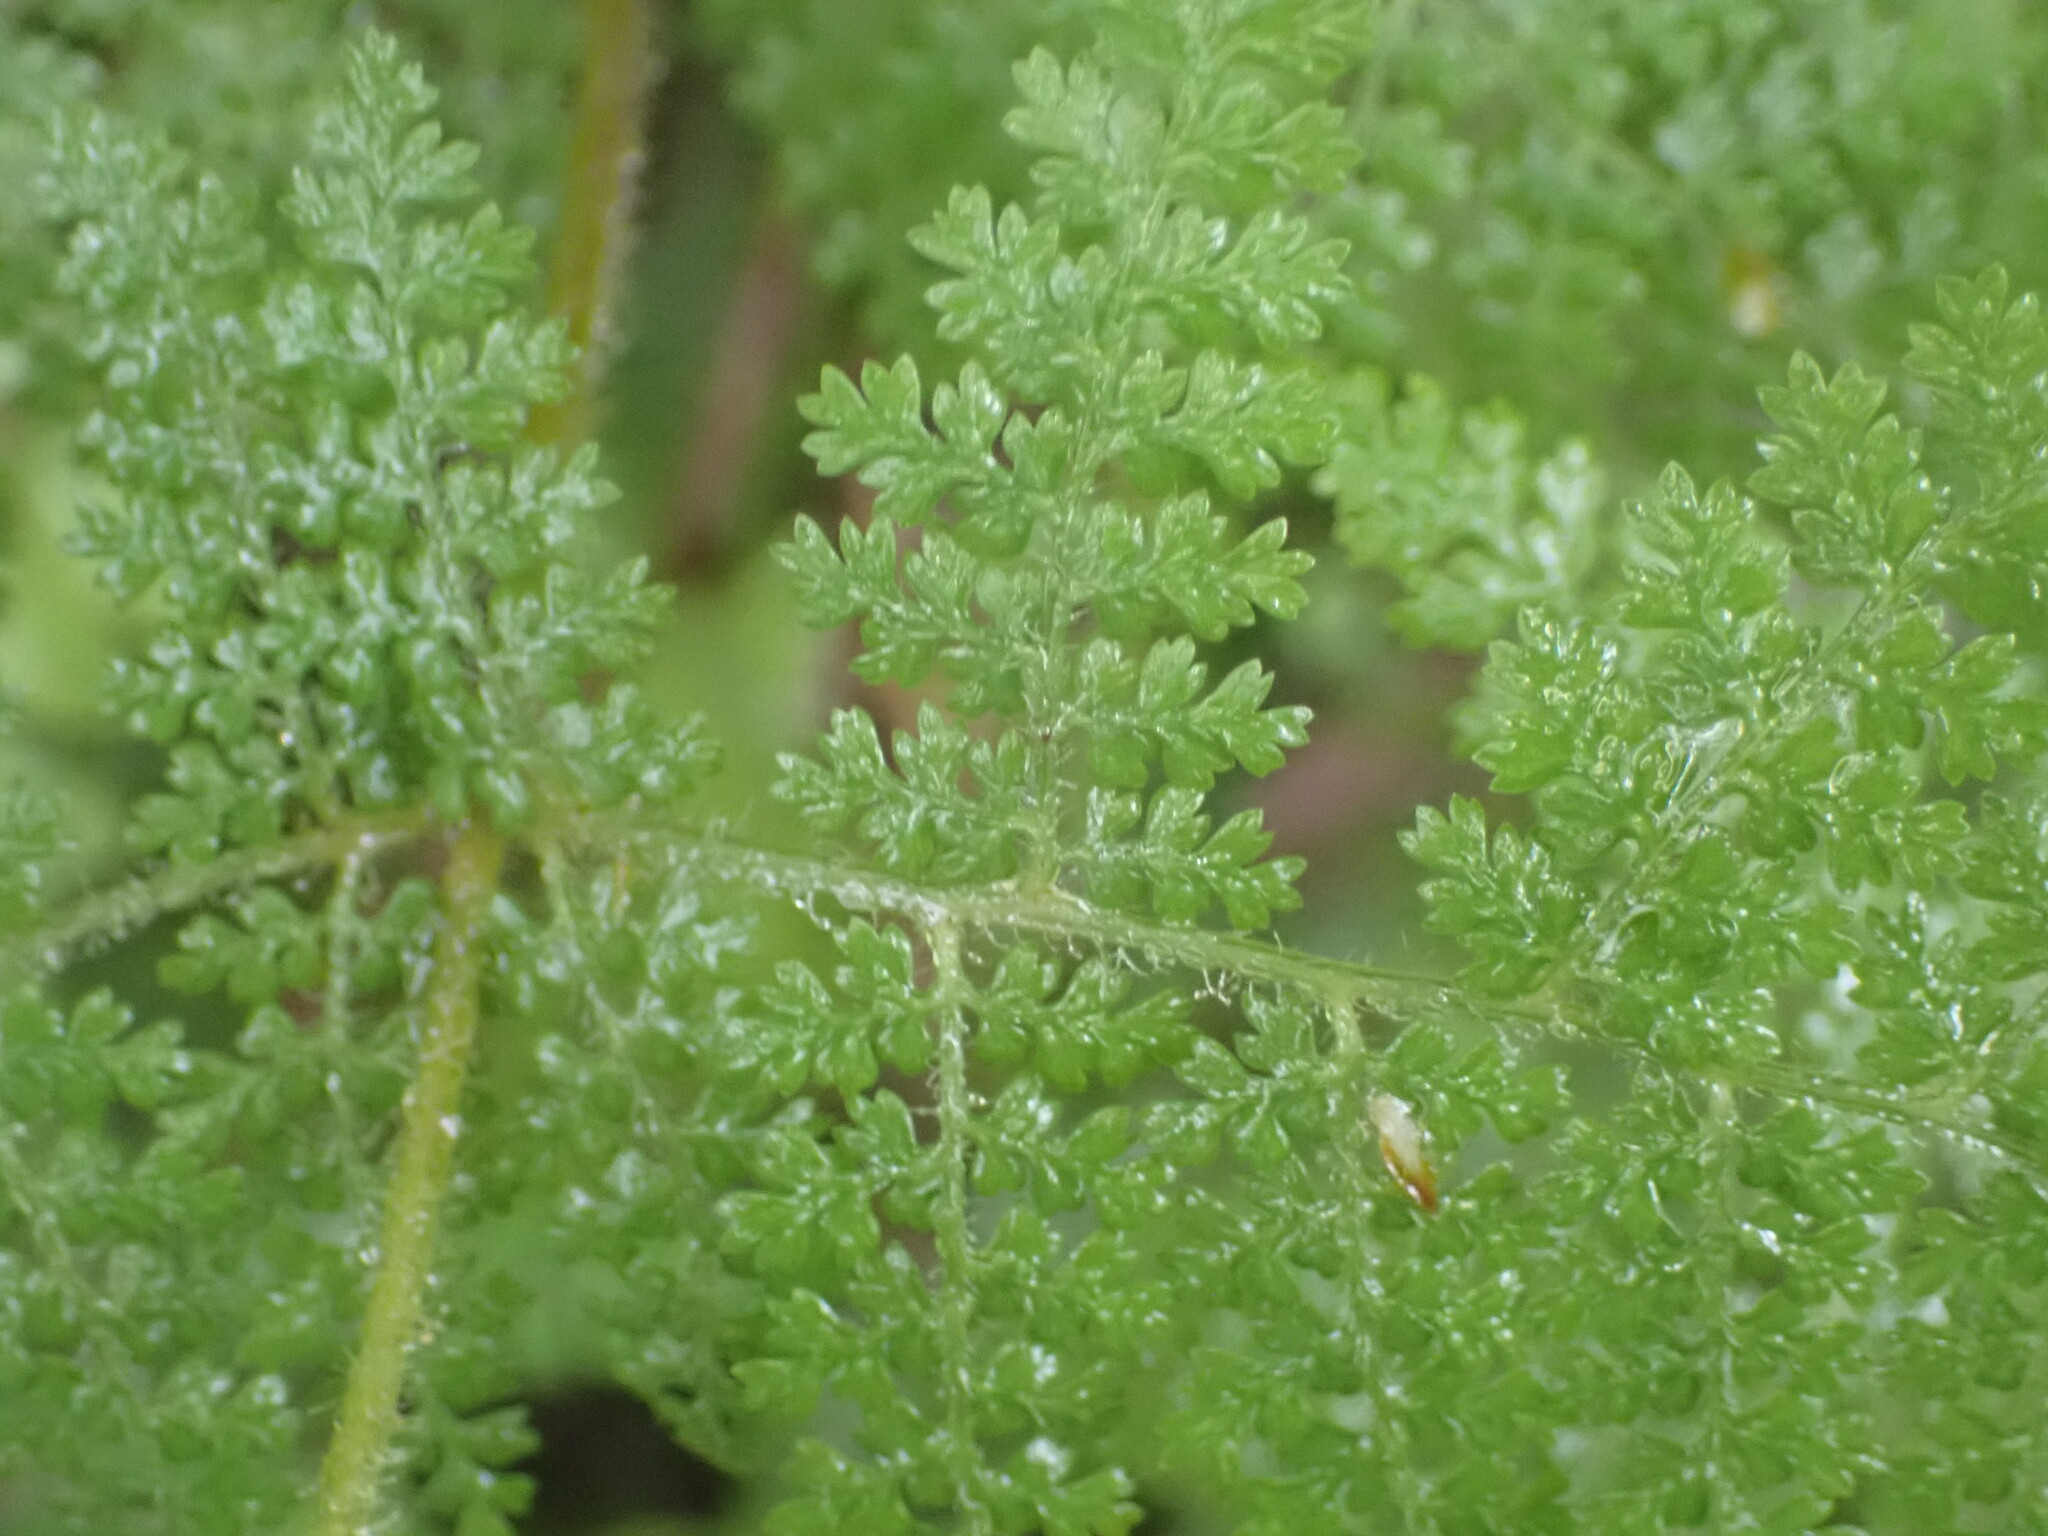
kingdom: Plantae
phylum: Tracheophyta
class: Polypodiopsida
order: Polypodiales
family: Dennstaedtiaceae
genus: Hypolepis
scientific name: Hypolepis millefolium
